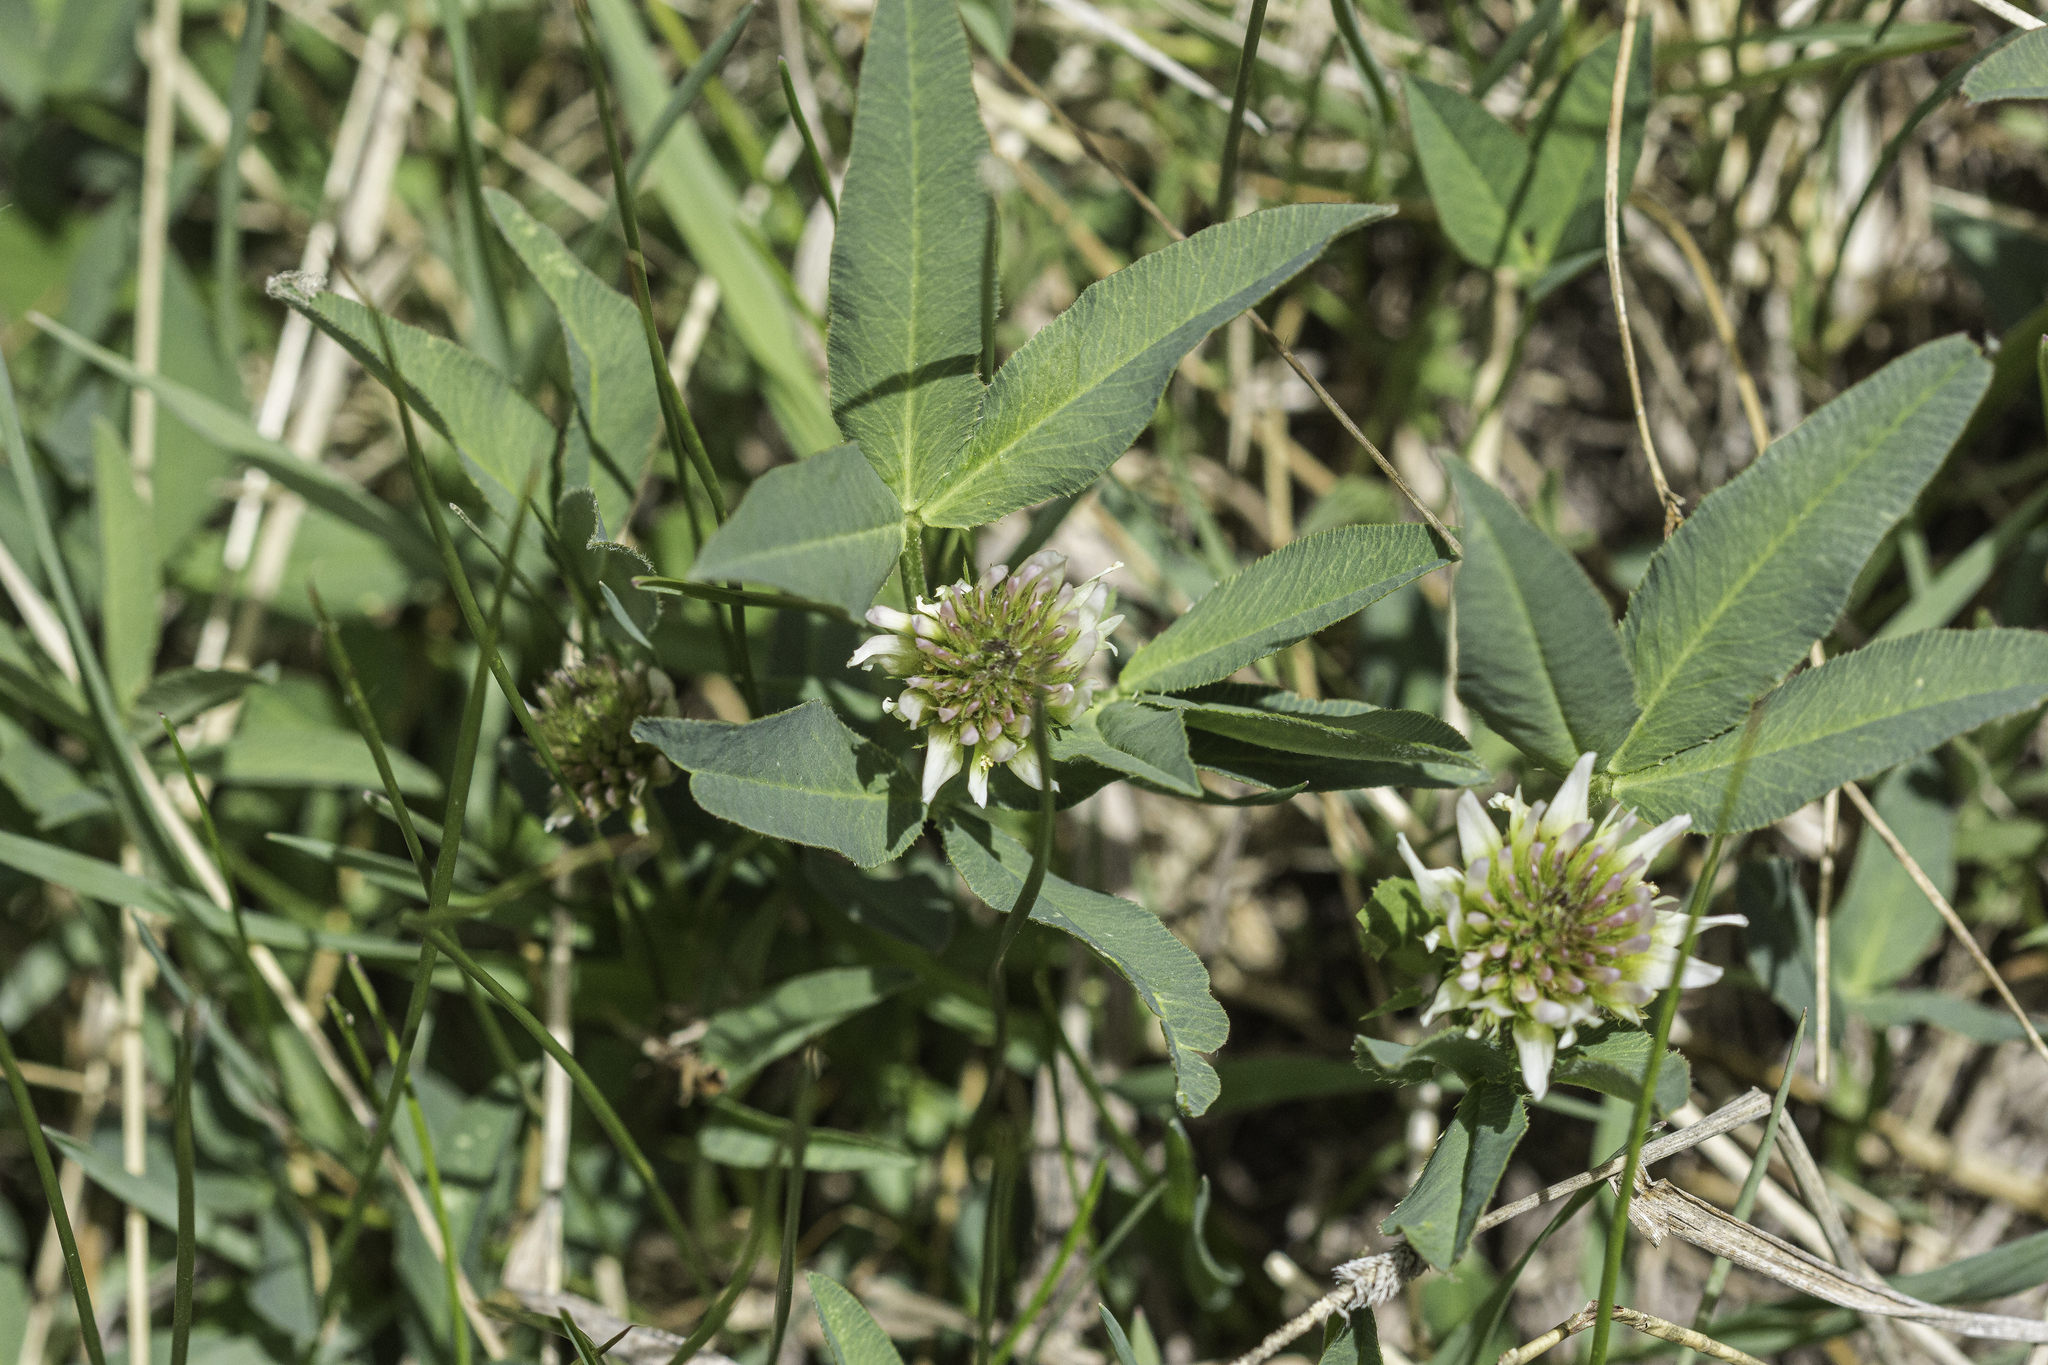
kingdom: Plantae
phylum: Tracheophyta
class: Magnoliopsida
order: Fabales
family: Fabaceae
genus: Trifolium
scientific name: Trifolium longipes
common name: Long-stalk clover
